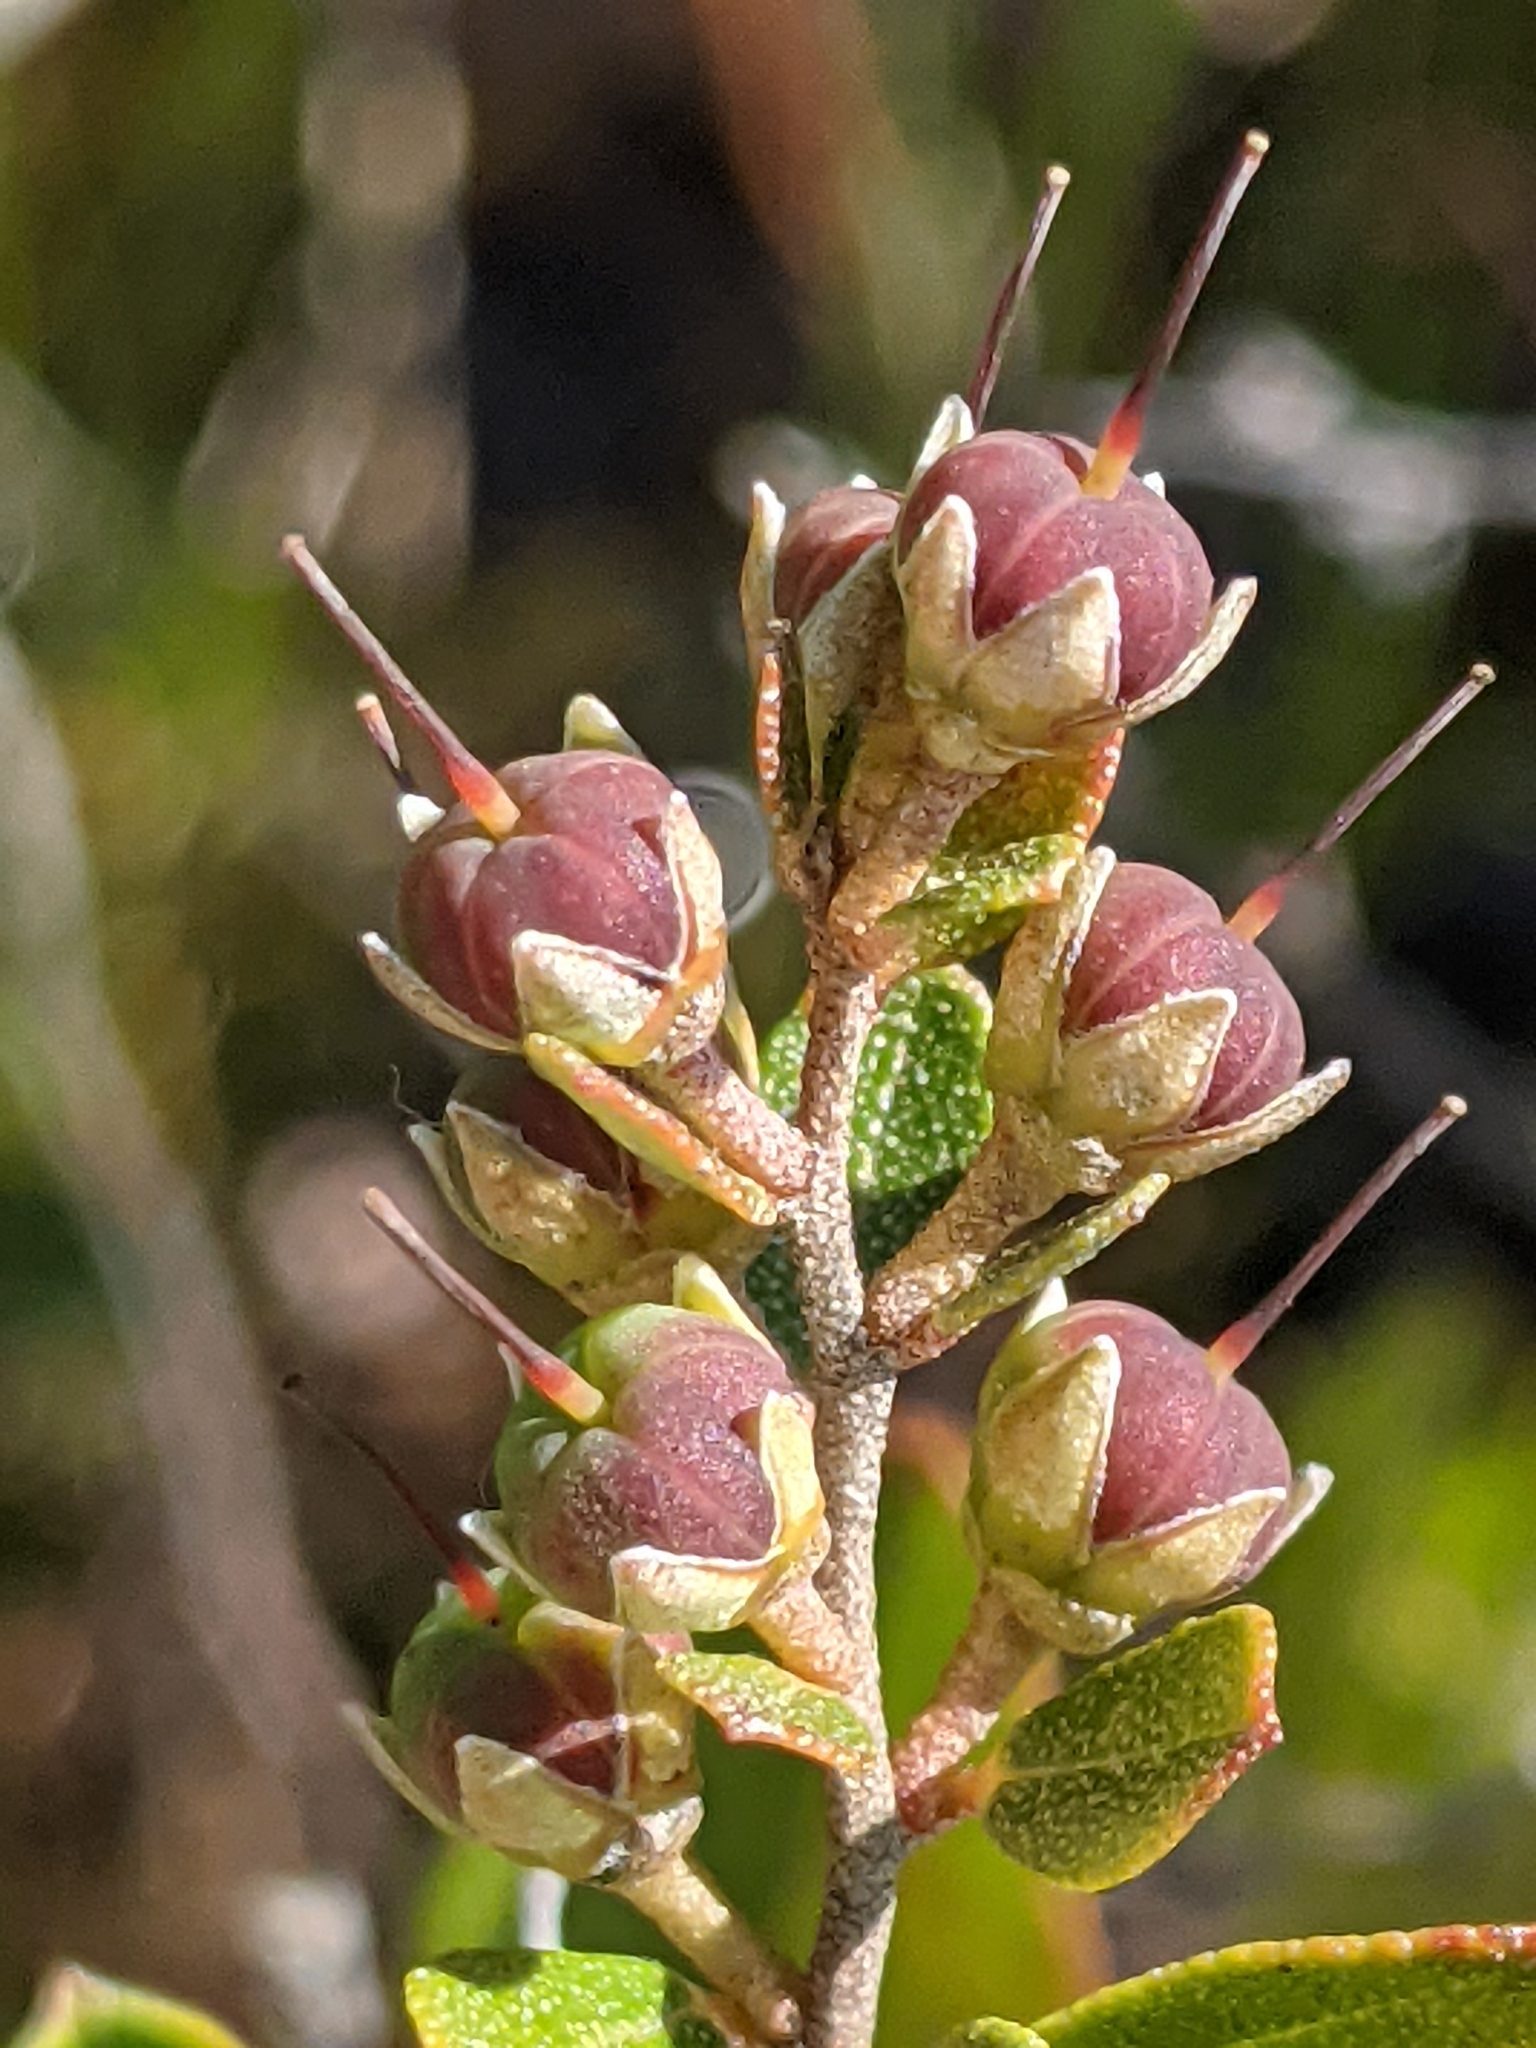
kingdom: Plantae
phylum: Tracheophyta
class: Magnoliopsida
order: Ericales
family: Ericaceae
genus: Chamaedaphne
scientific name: Chamaedaphne calyculata
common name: Leatherleaf
